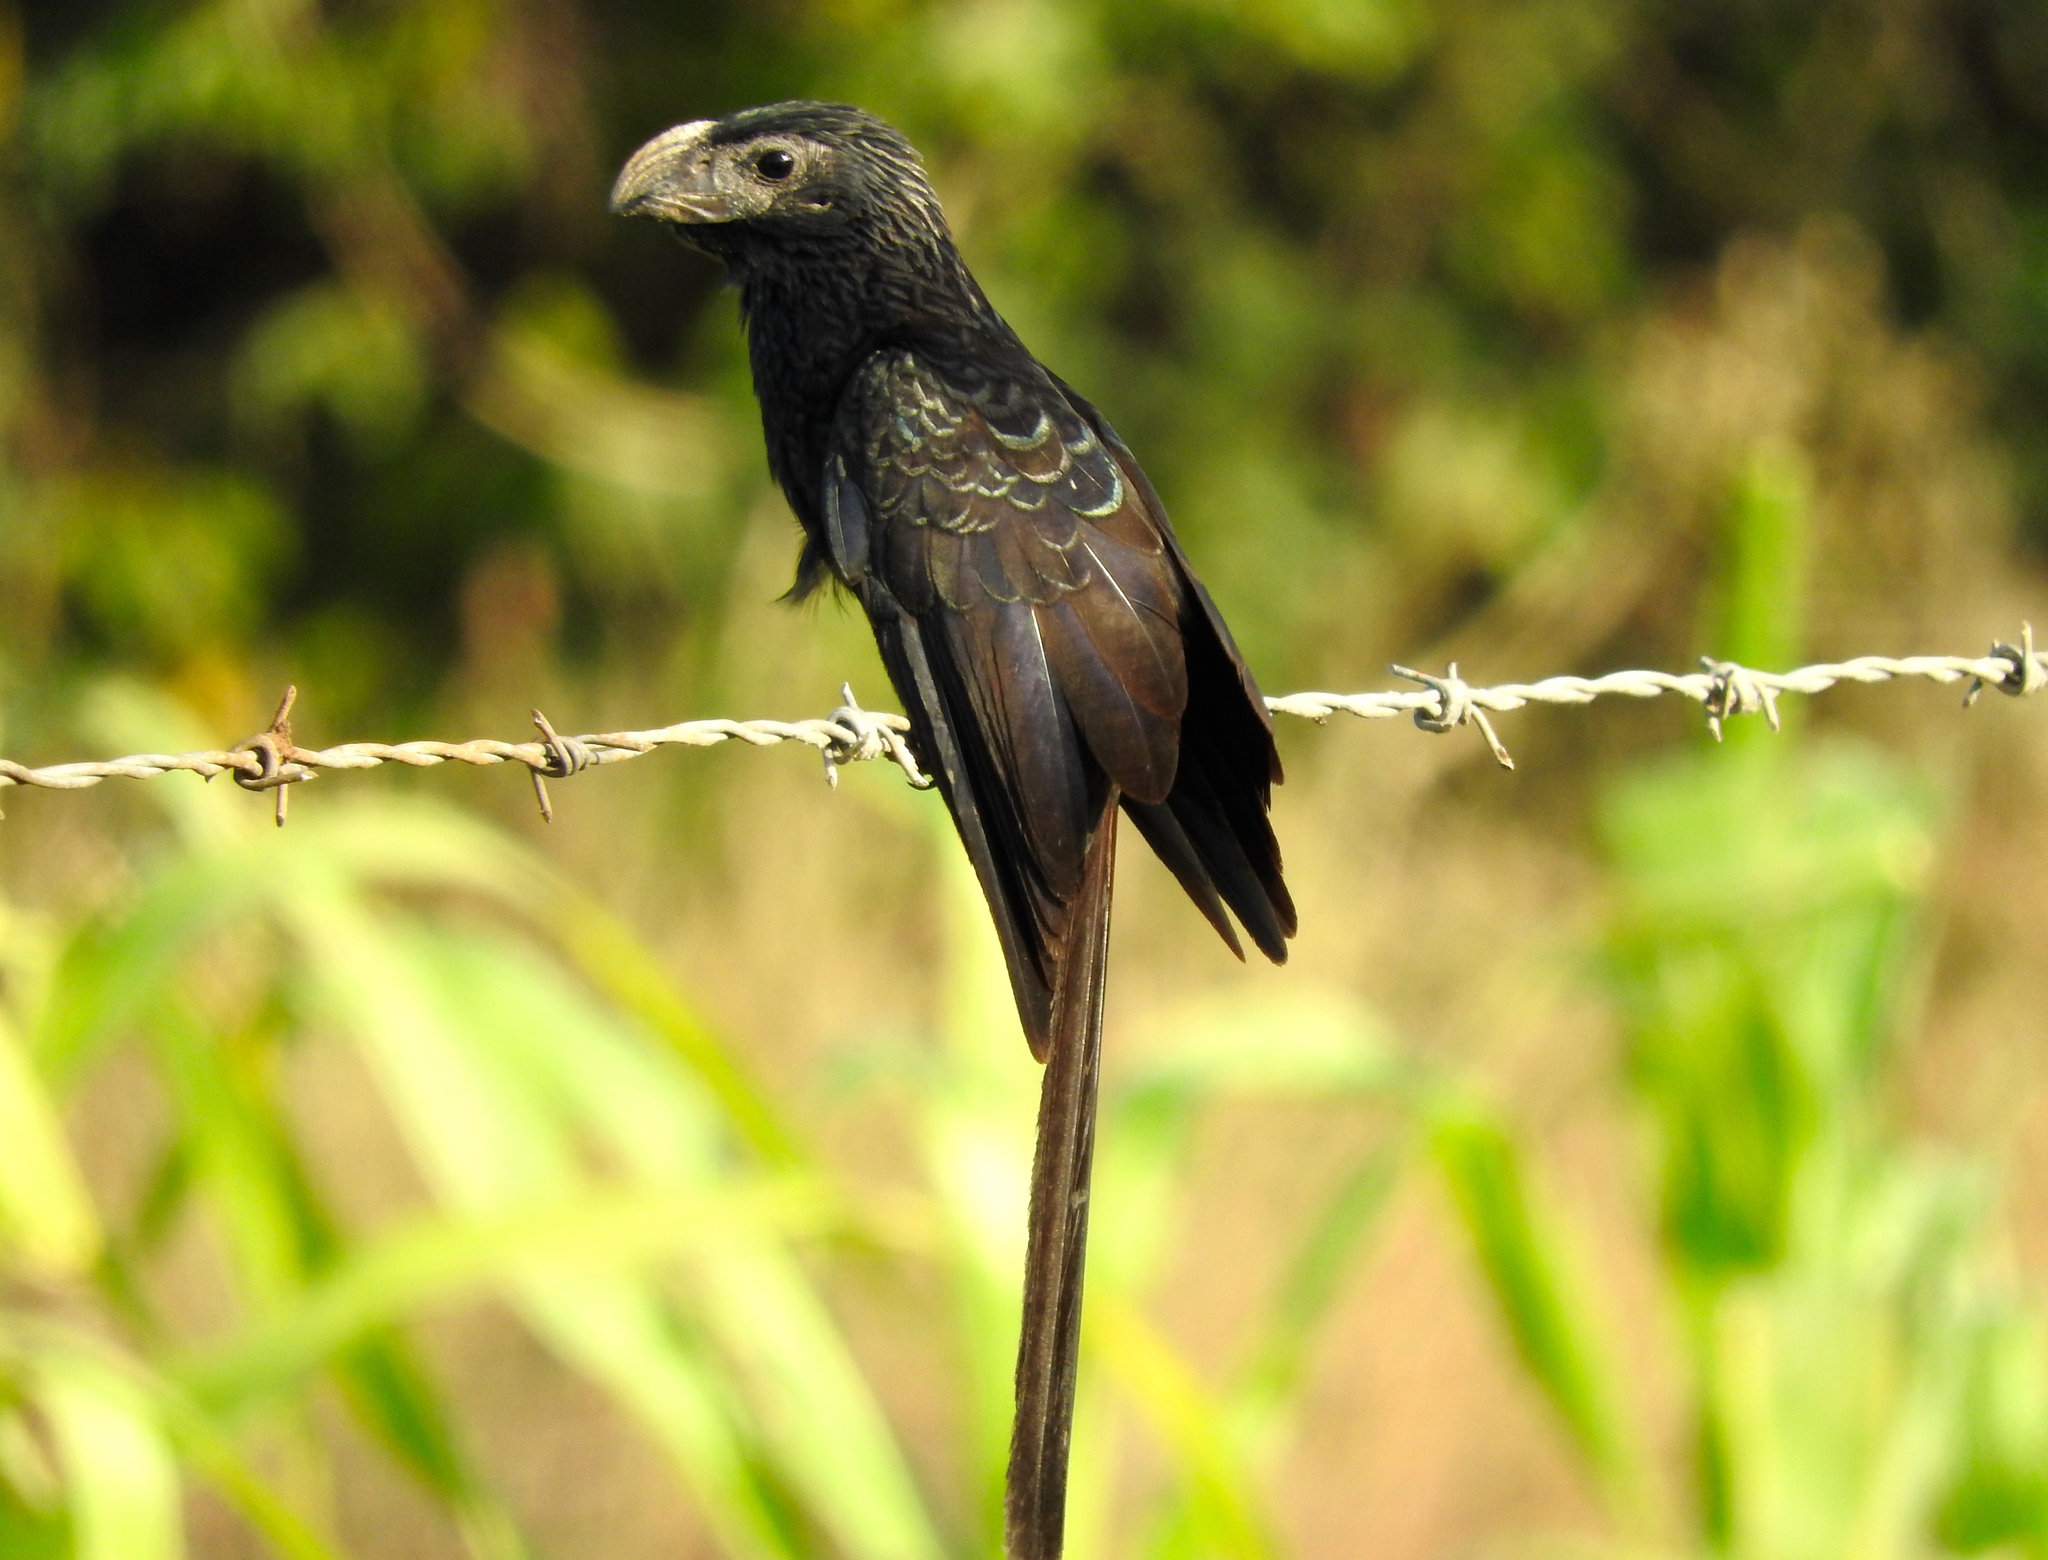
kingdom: Animalia
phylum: Chordata
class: Aves
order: Cuculiformes
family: Cuculidae
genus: Crotophaga
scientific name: Crotophaga sulcirostris
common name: Groove-billed ani
